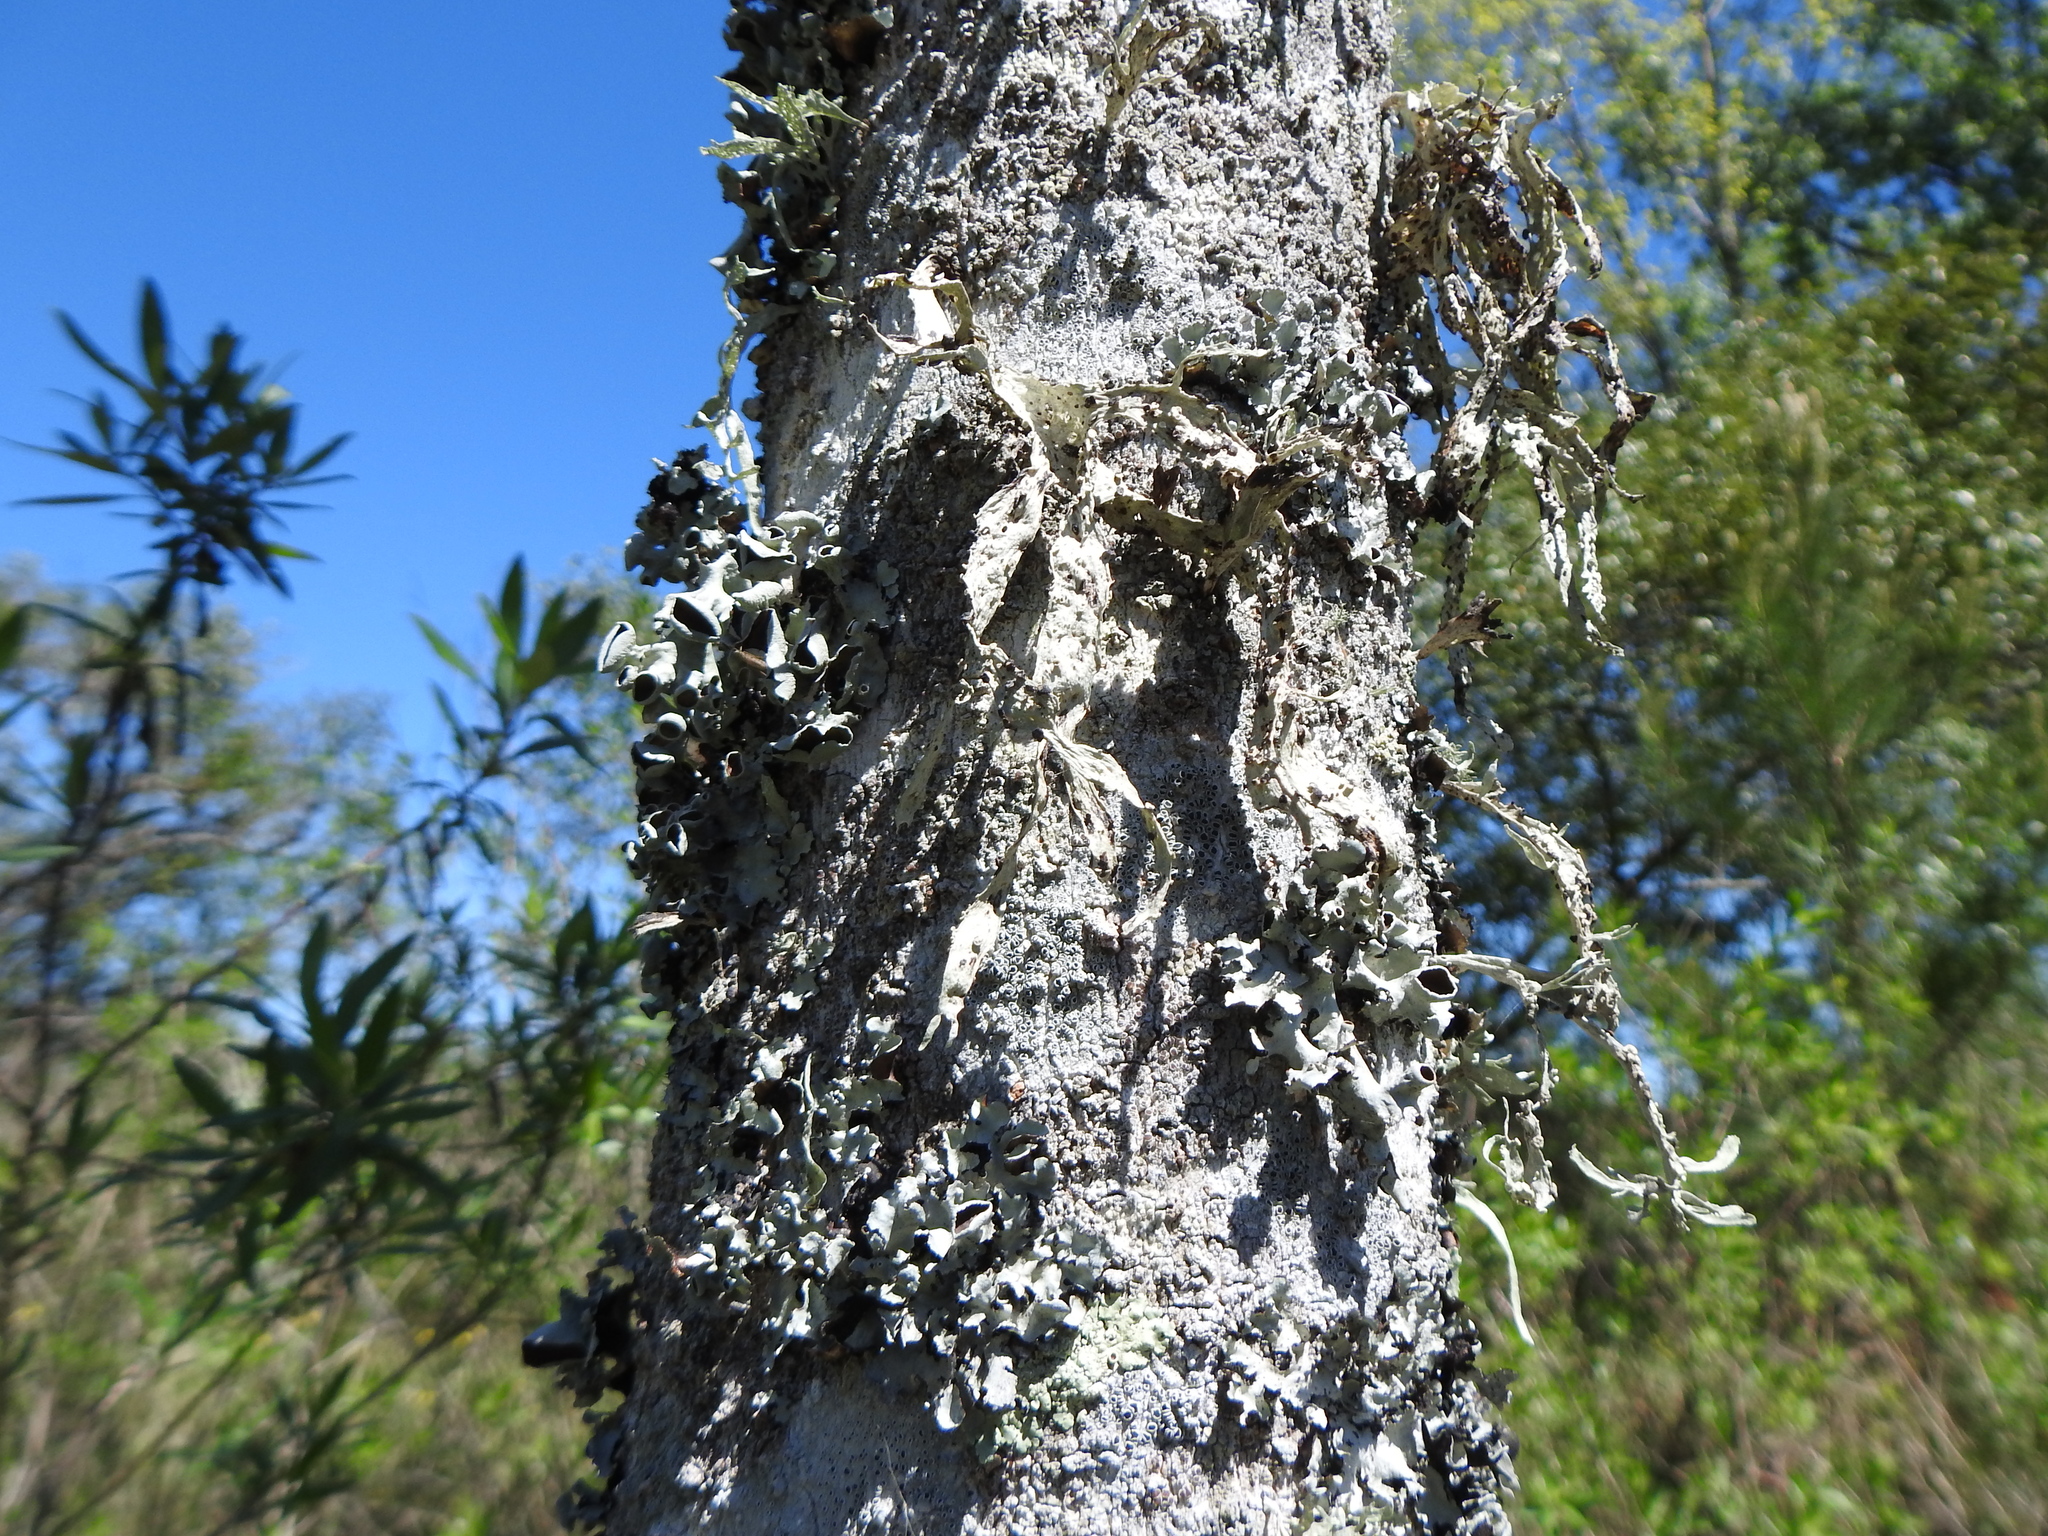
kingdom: Fungi
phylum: Ascomycota
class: Lecanoromycetes
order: Lecanorales
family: Ramalinaceae
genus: Ramalina
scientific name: Ramalina celastri
